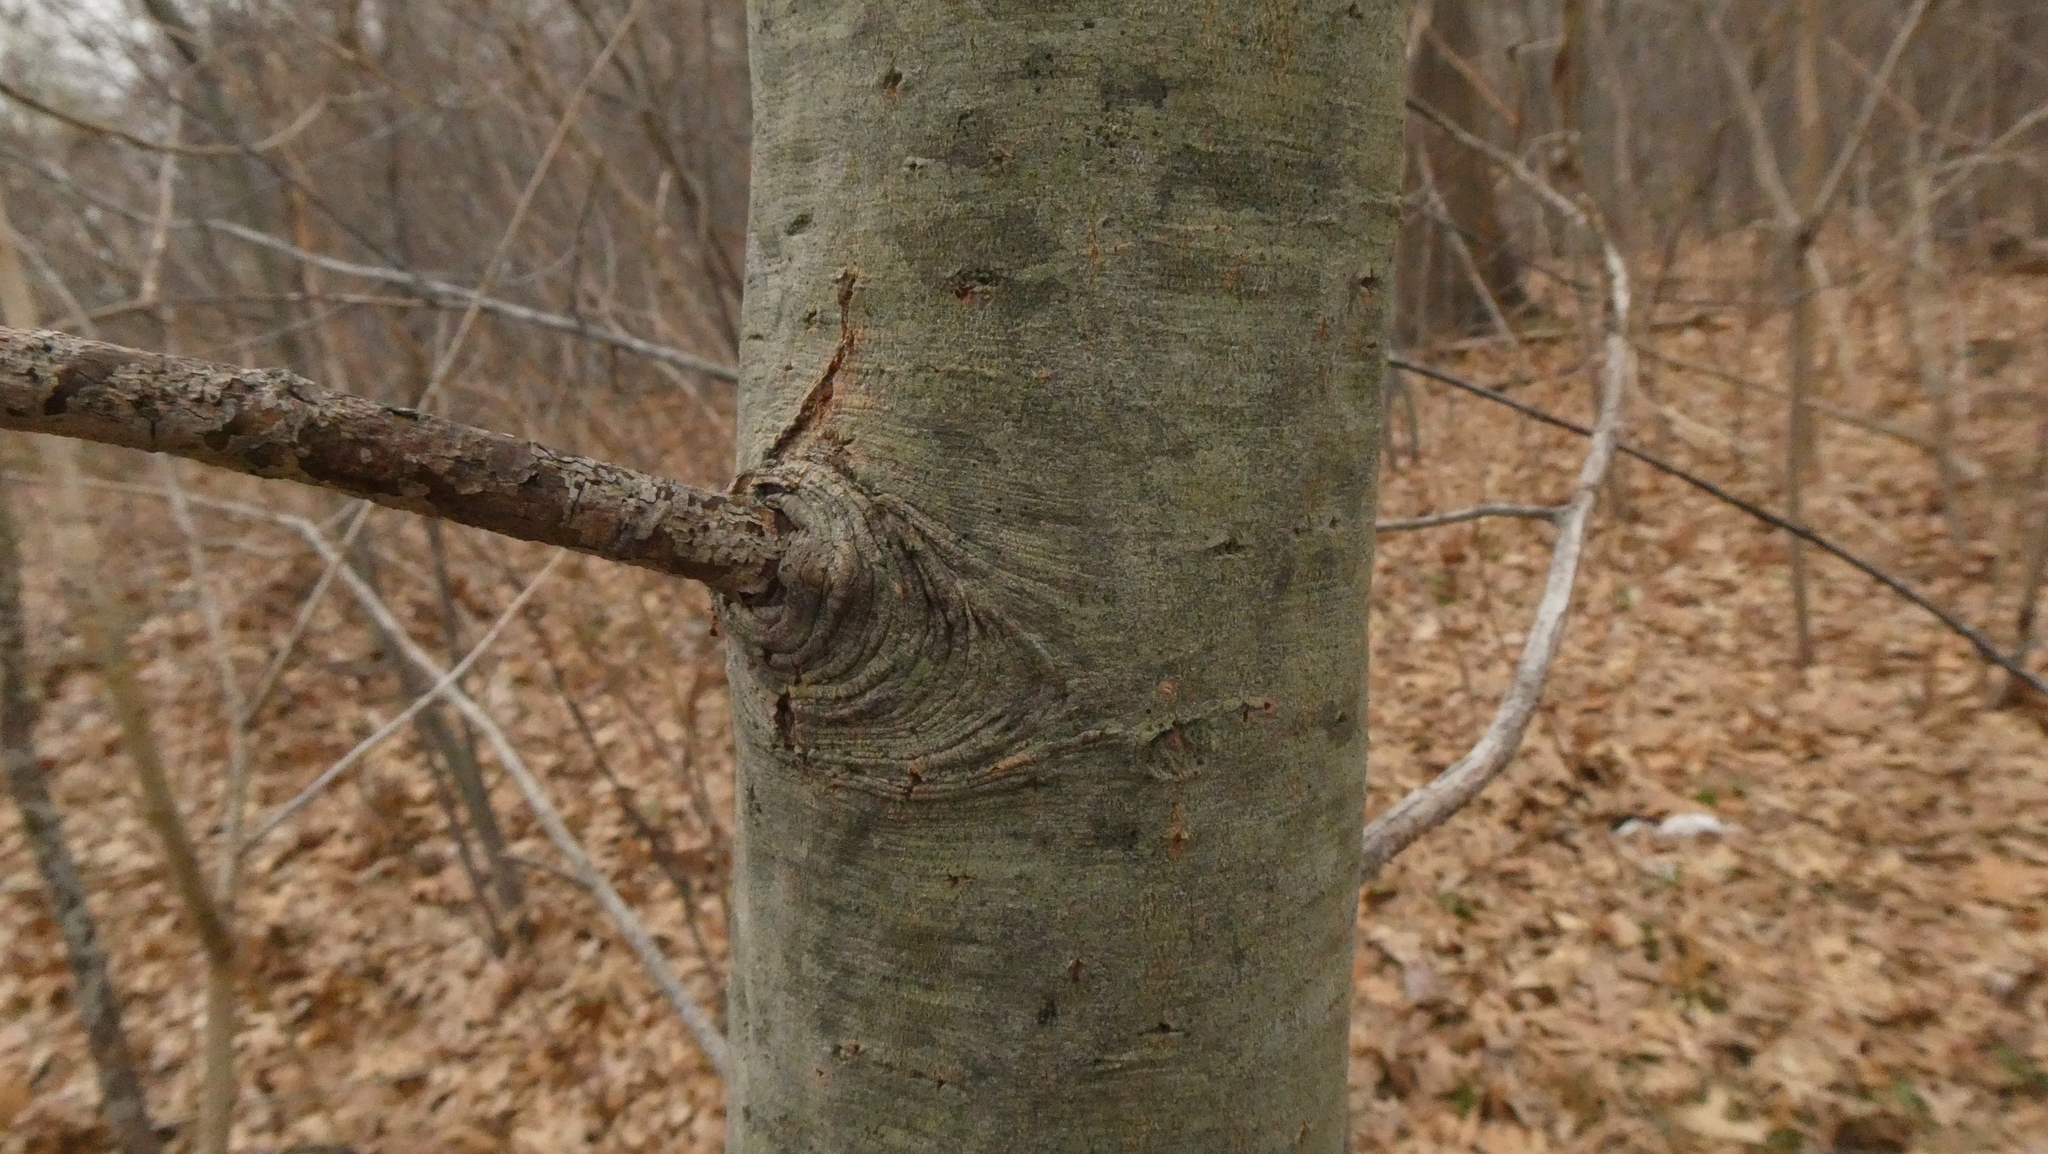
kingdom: Plantae
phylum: Tracheophyta
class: Magnoliopsida
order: Malpighiales
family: Salicaceae
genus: Salix
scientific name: Salix cinerea
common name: Common sallow
